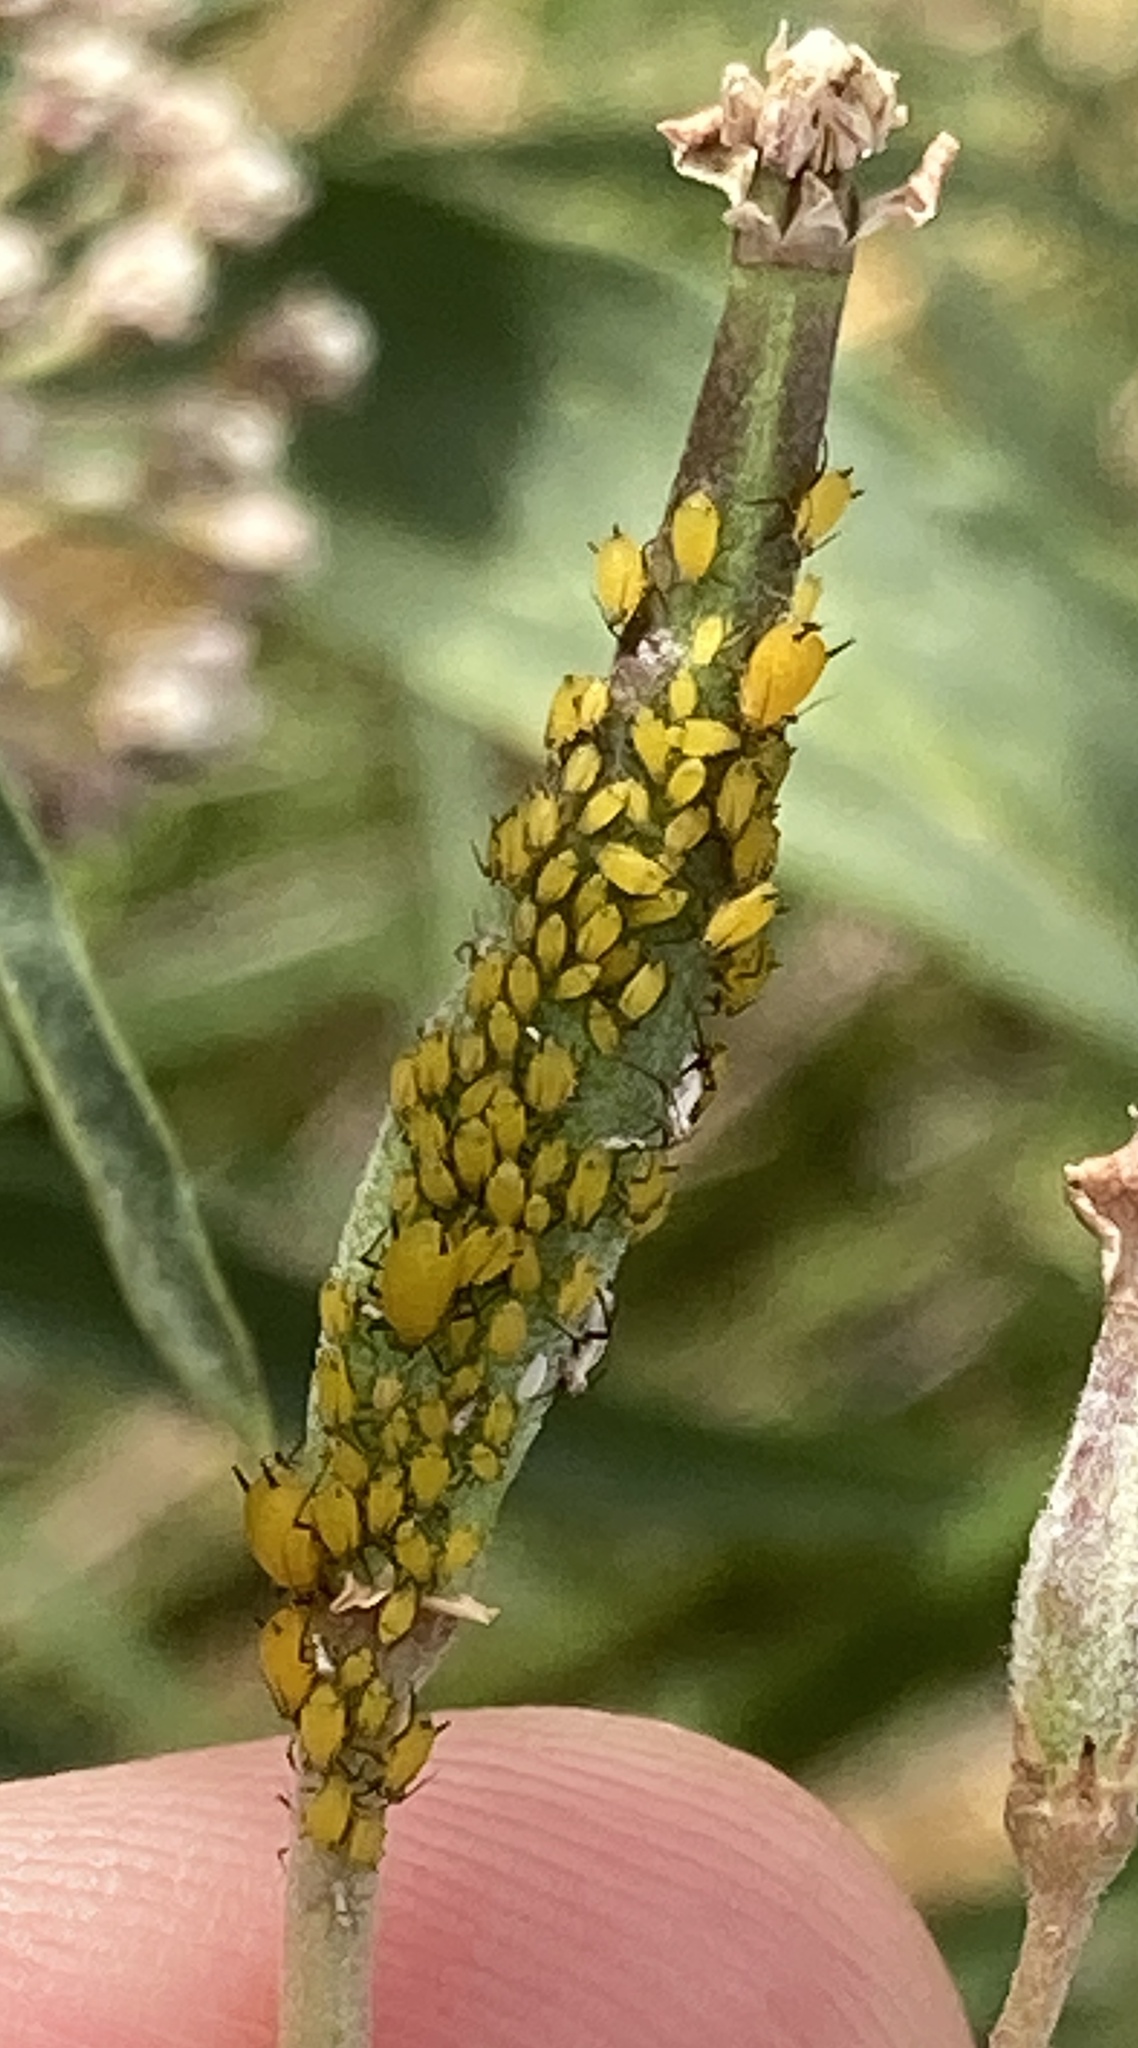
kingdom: Animalia
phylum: Arthropoda
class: Insecta
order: Hemiptera
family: Aphididae
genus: Aphis
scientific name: Aphis nerii
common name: Oleander aphid
